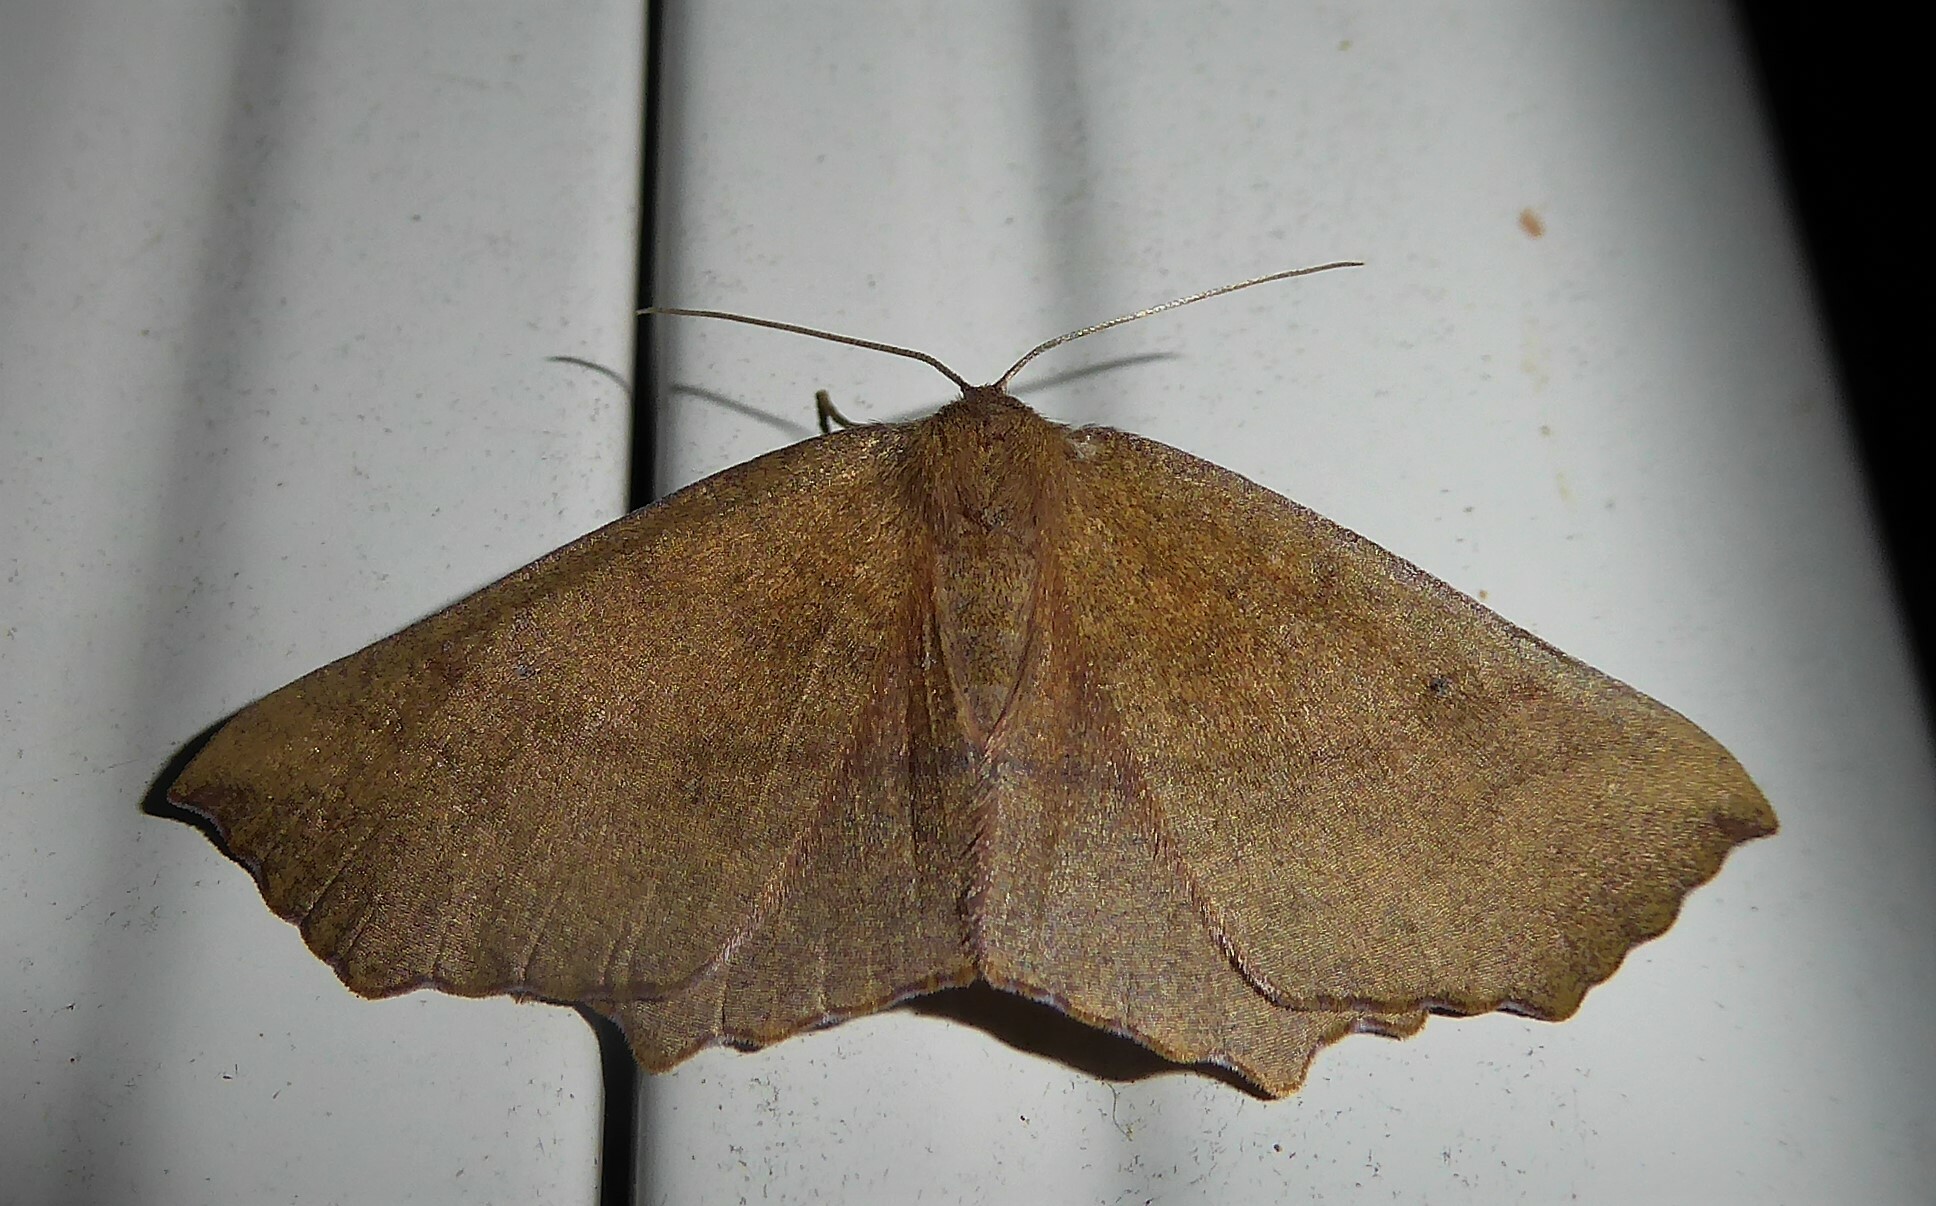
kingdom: Animalia
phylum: Arthropoda
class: Insecta
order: Lepidoptera
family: Geometridae
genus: Xyridacma
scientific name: Xyridacma ustaria
